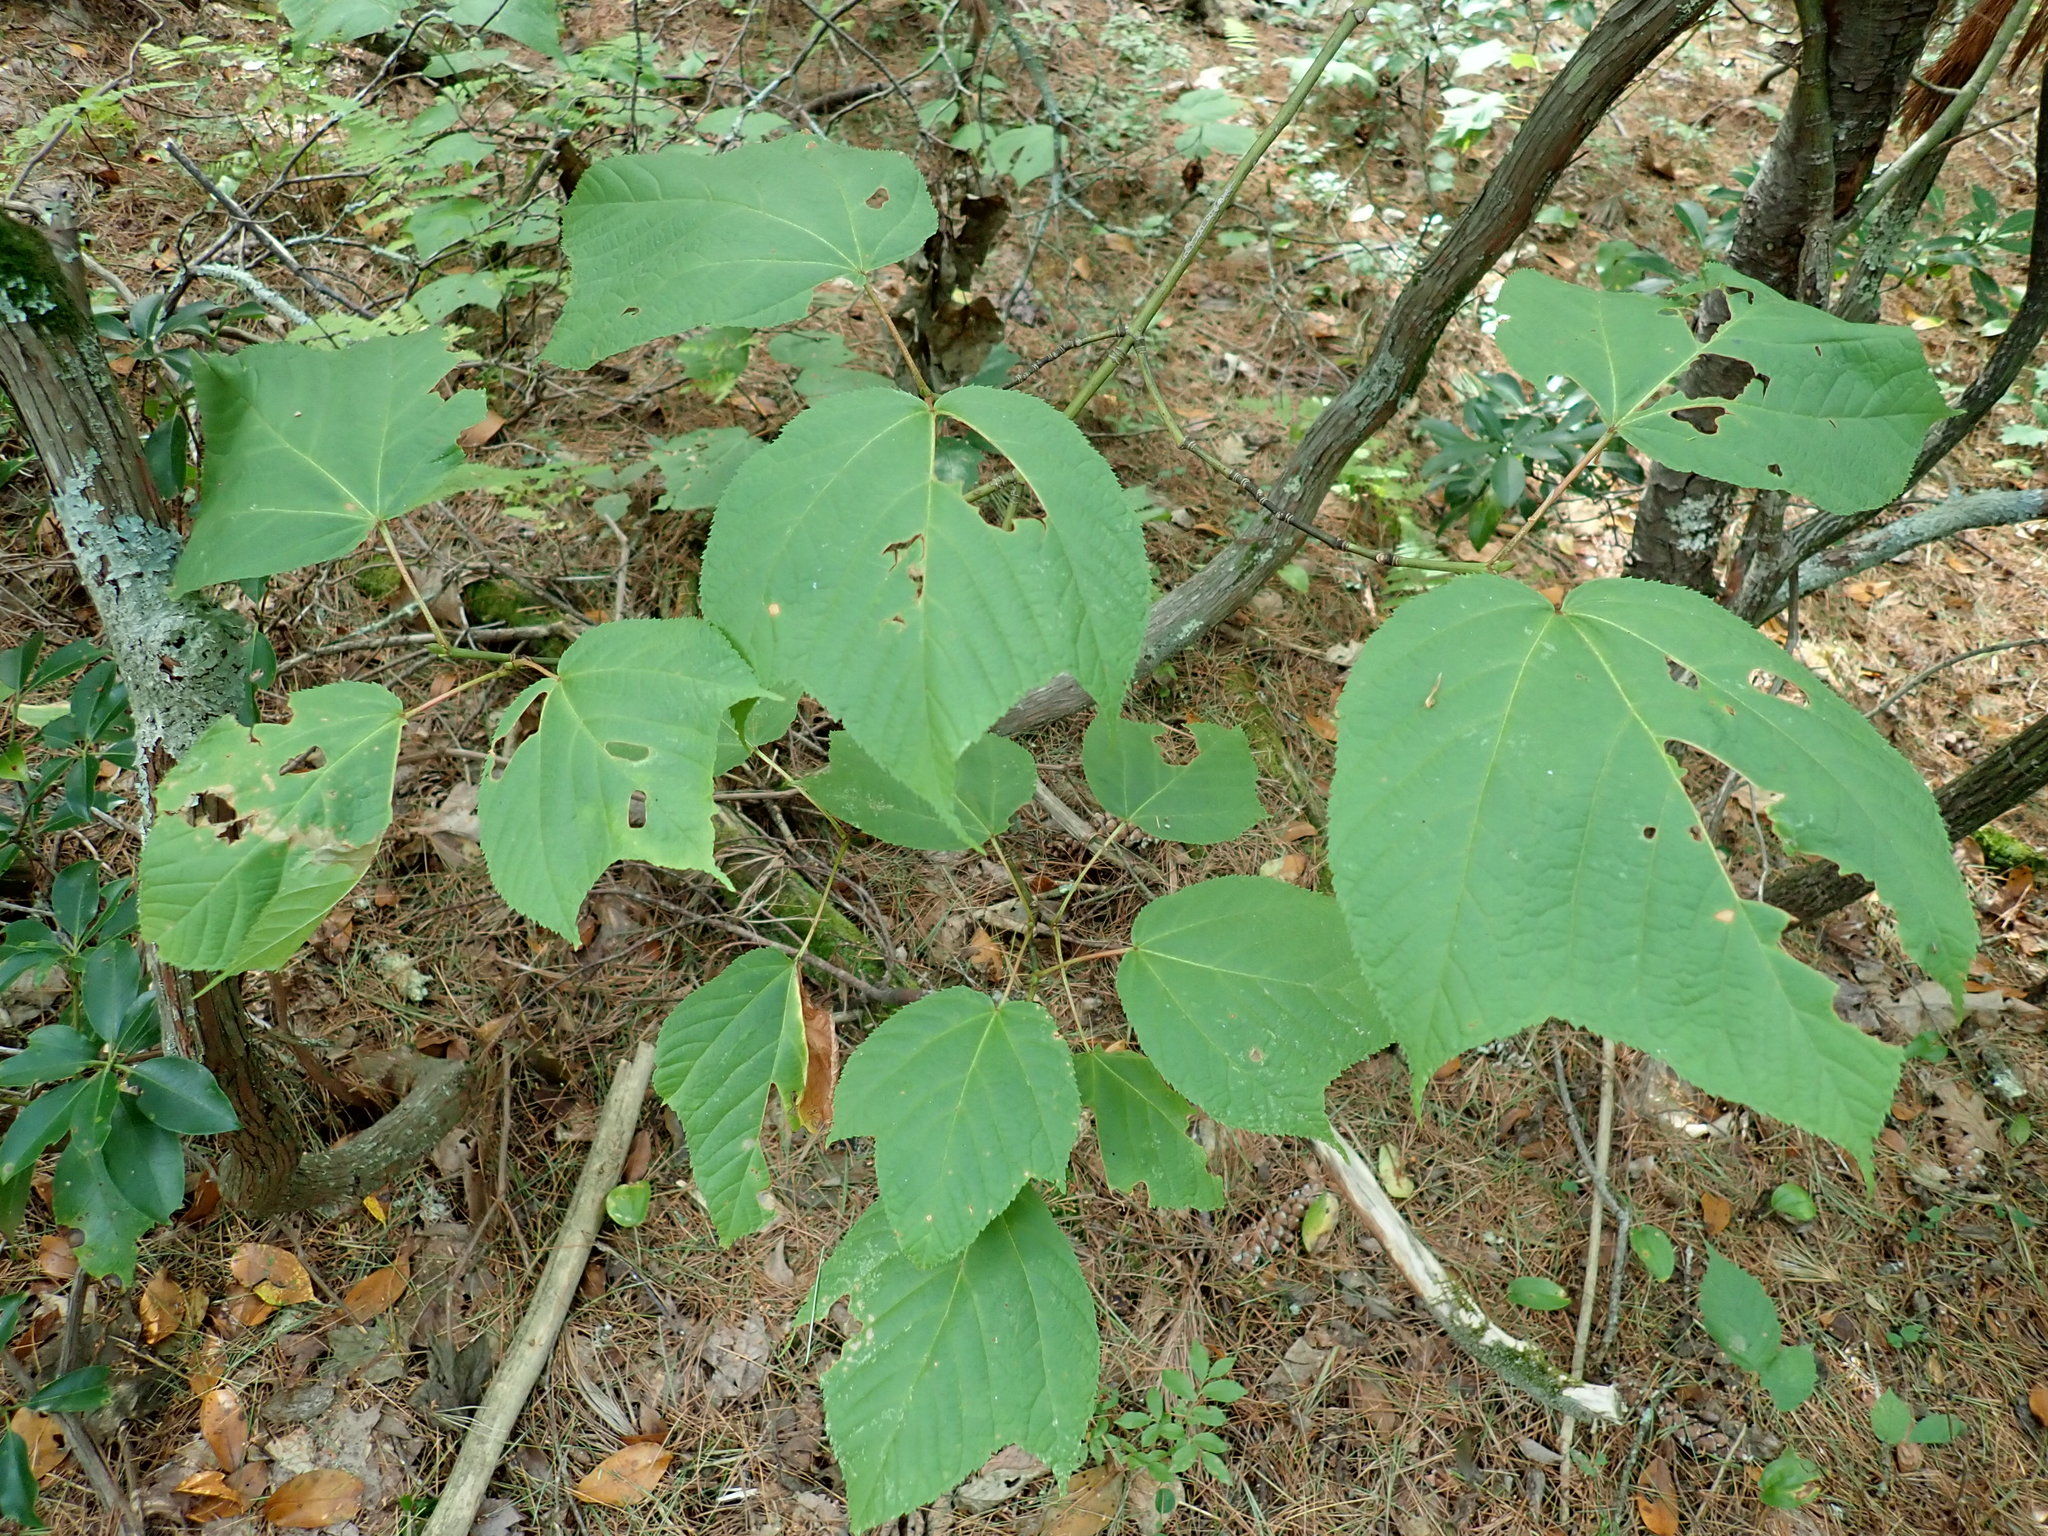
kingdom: Plantae
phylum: Tracheophyta
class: Magnoliopsida
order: Sapindales
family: Sapindaceae
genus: Acer
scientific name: Acer pensylvanicum
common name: Moosewood
